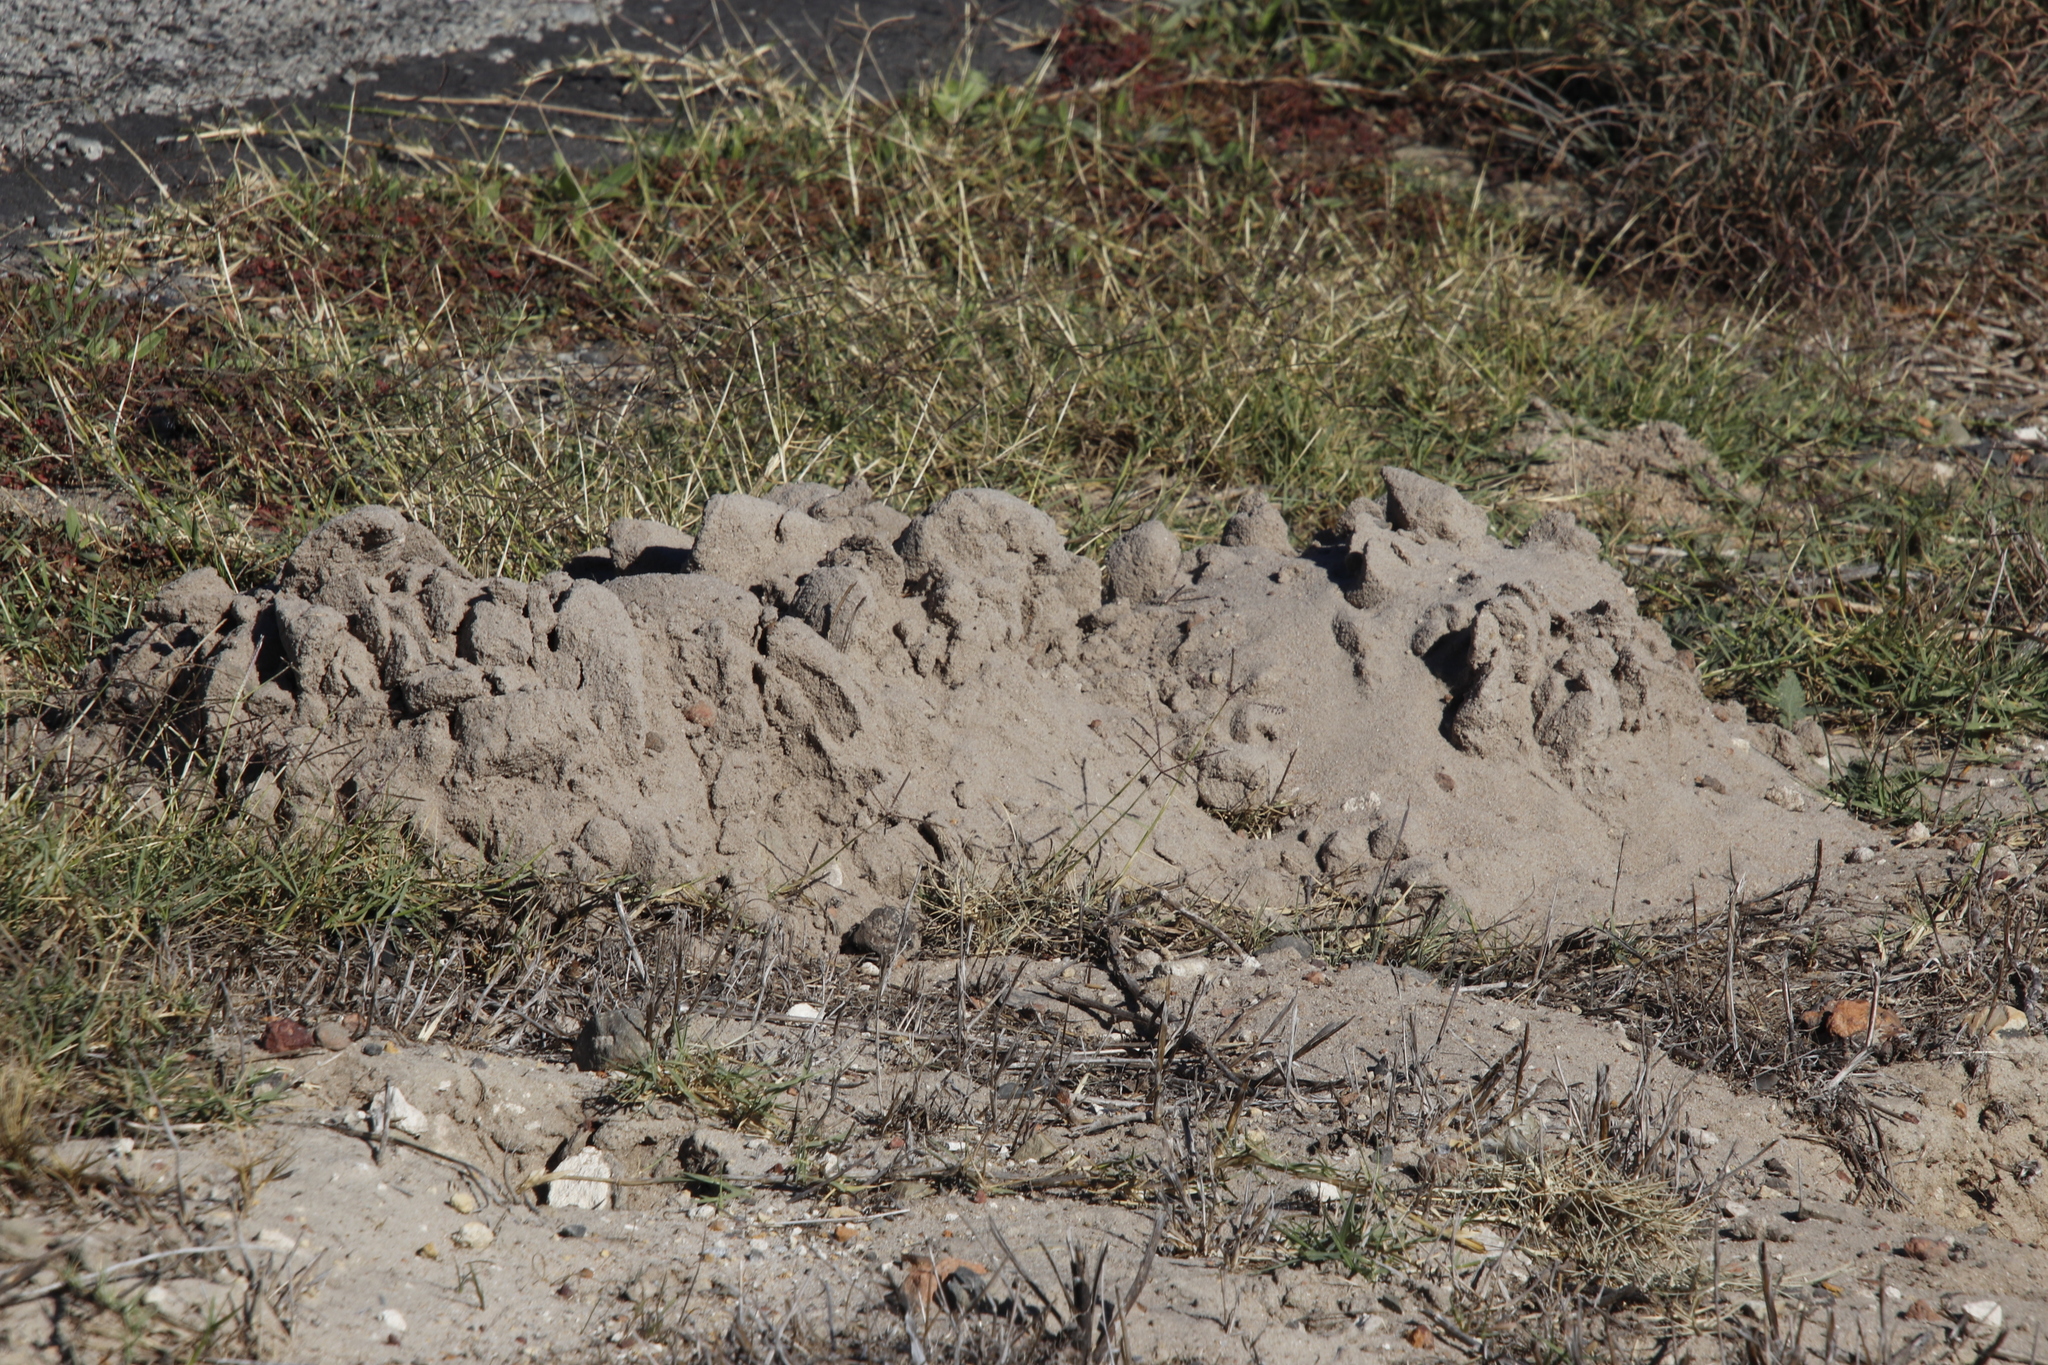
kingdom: Animalia
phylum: Chordata
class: Mammalia
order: Rodentia
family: Bathyergidae
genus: Bathyergus
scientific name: Bathyergus suillus
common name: Cape dune mole rat
